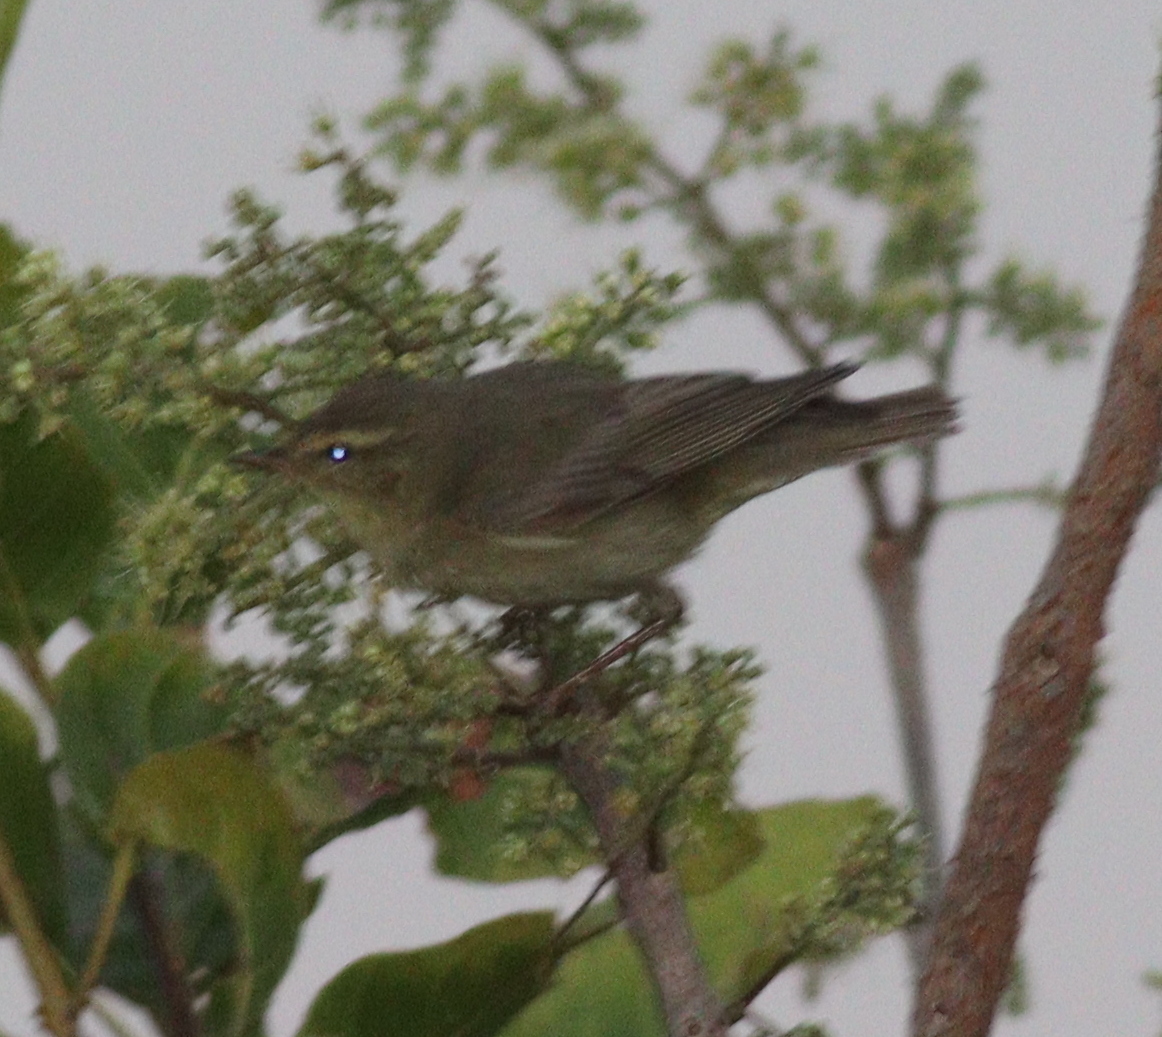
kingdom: Animalia
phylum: Chordata
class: Aves
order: Passeriformes
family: Phylloscopidae
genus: Phylloscopus
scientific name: Phylloscopus trochilus
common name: Willow warbler
